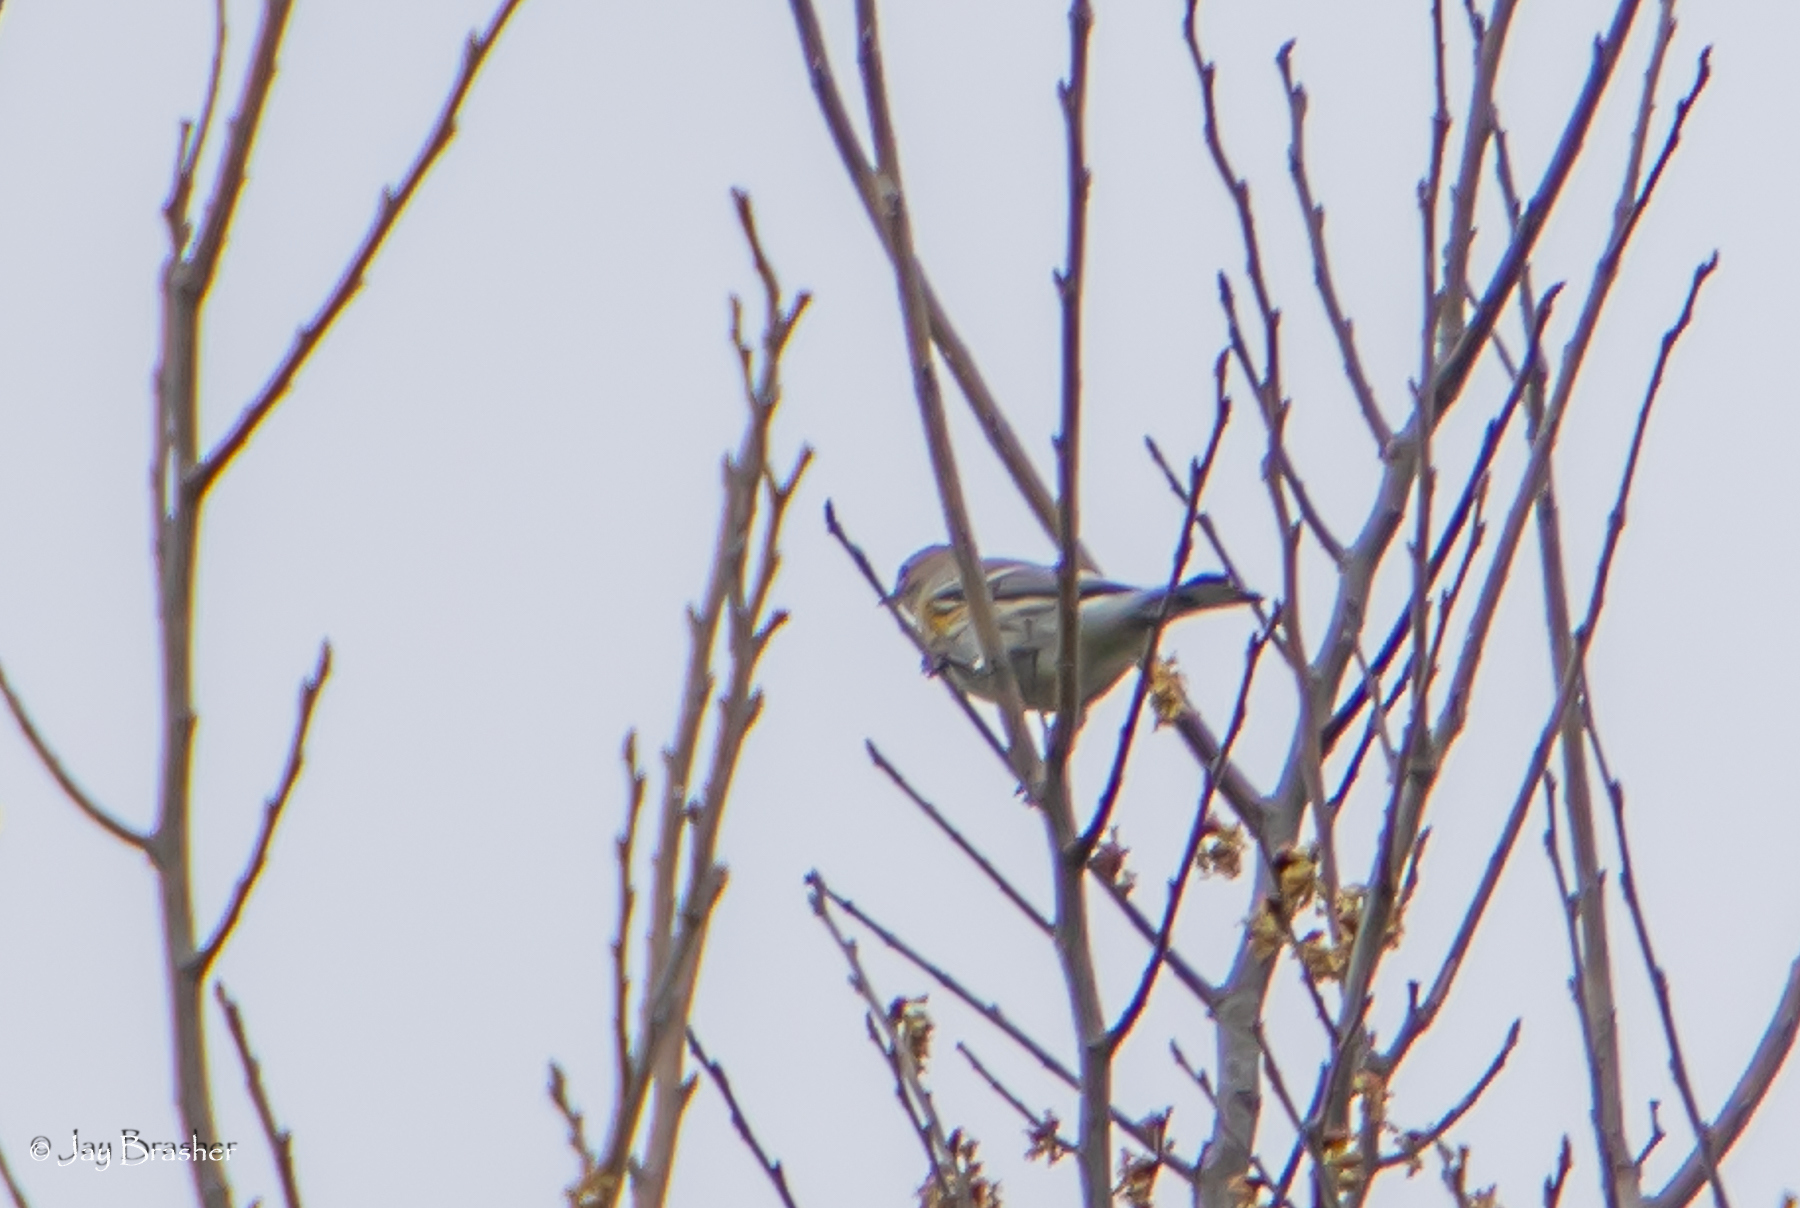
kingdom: Animalia
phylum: Chordata
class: Aves
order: Passeriformes
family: Parulidae
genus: Setophaga
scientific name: Setophaga coronata
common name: Myrtle warbler
